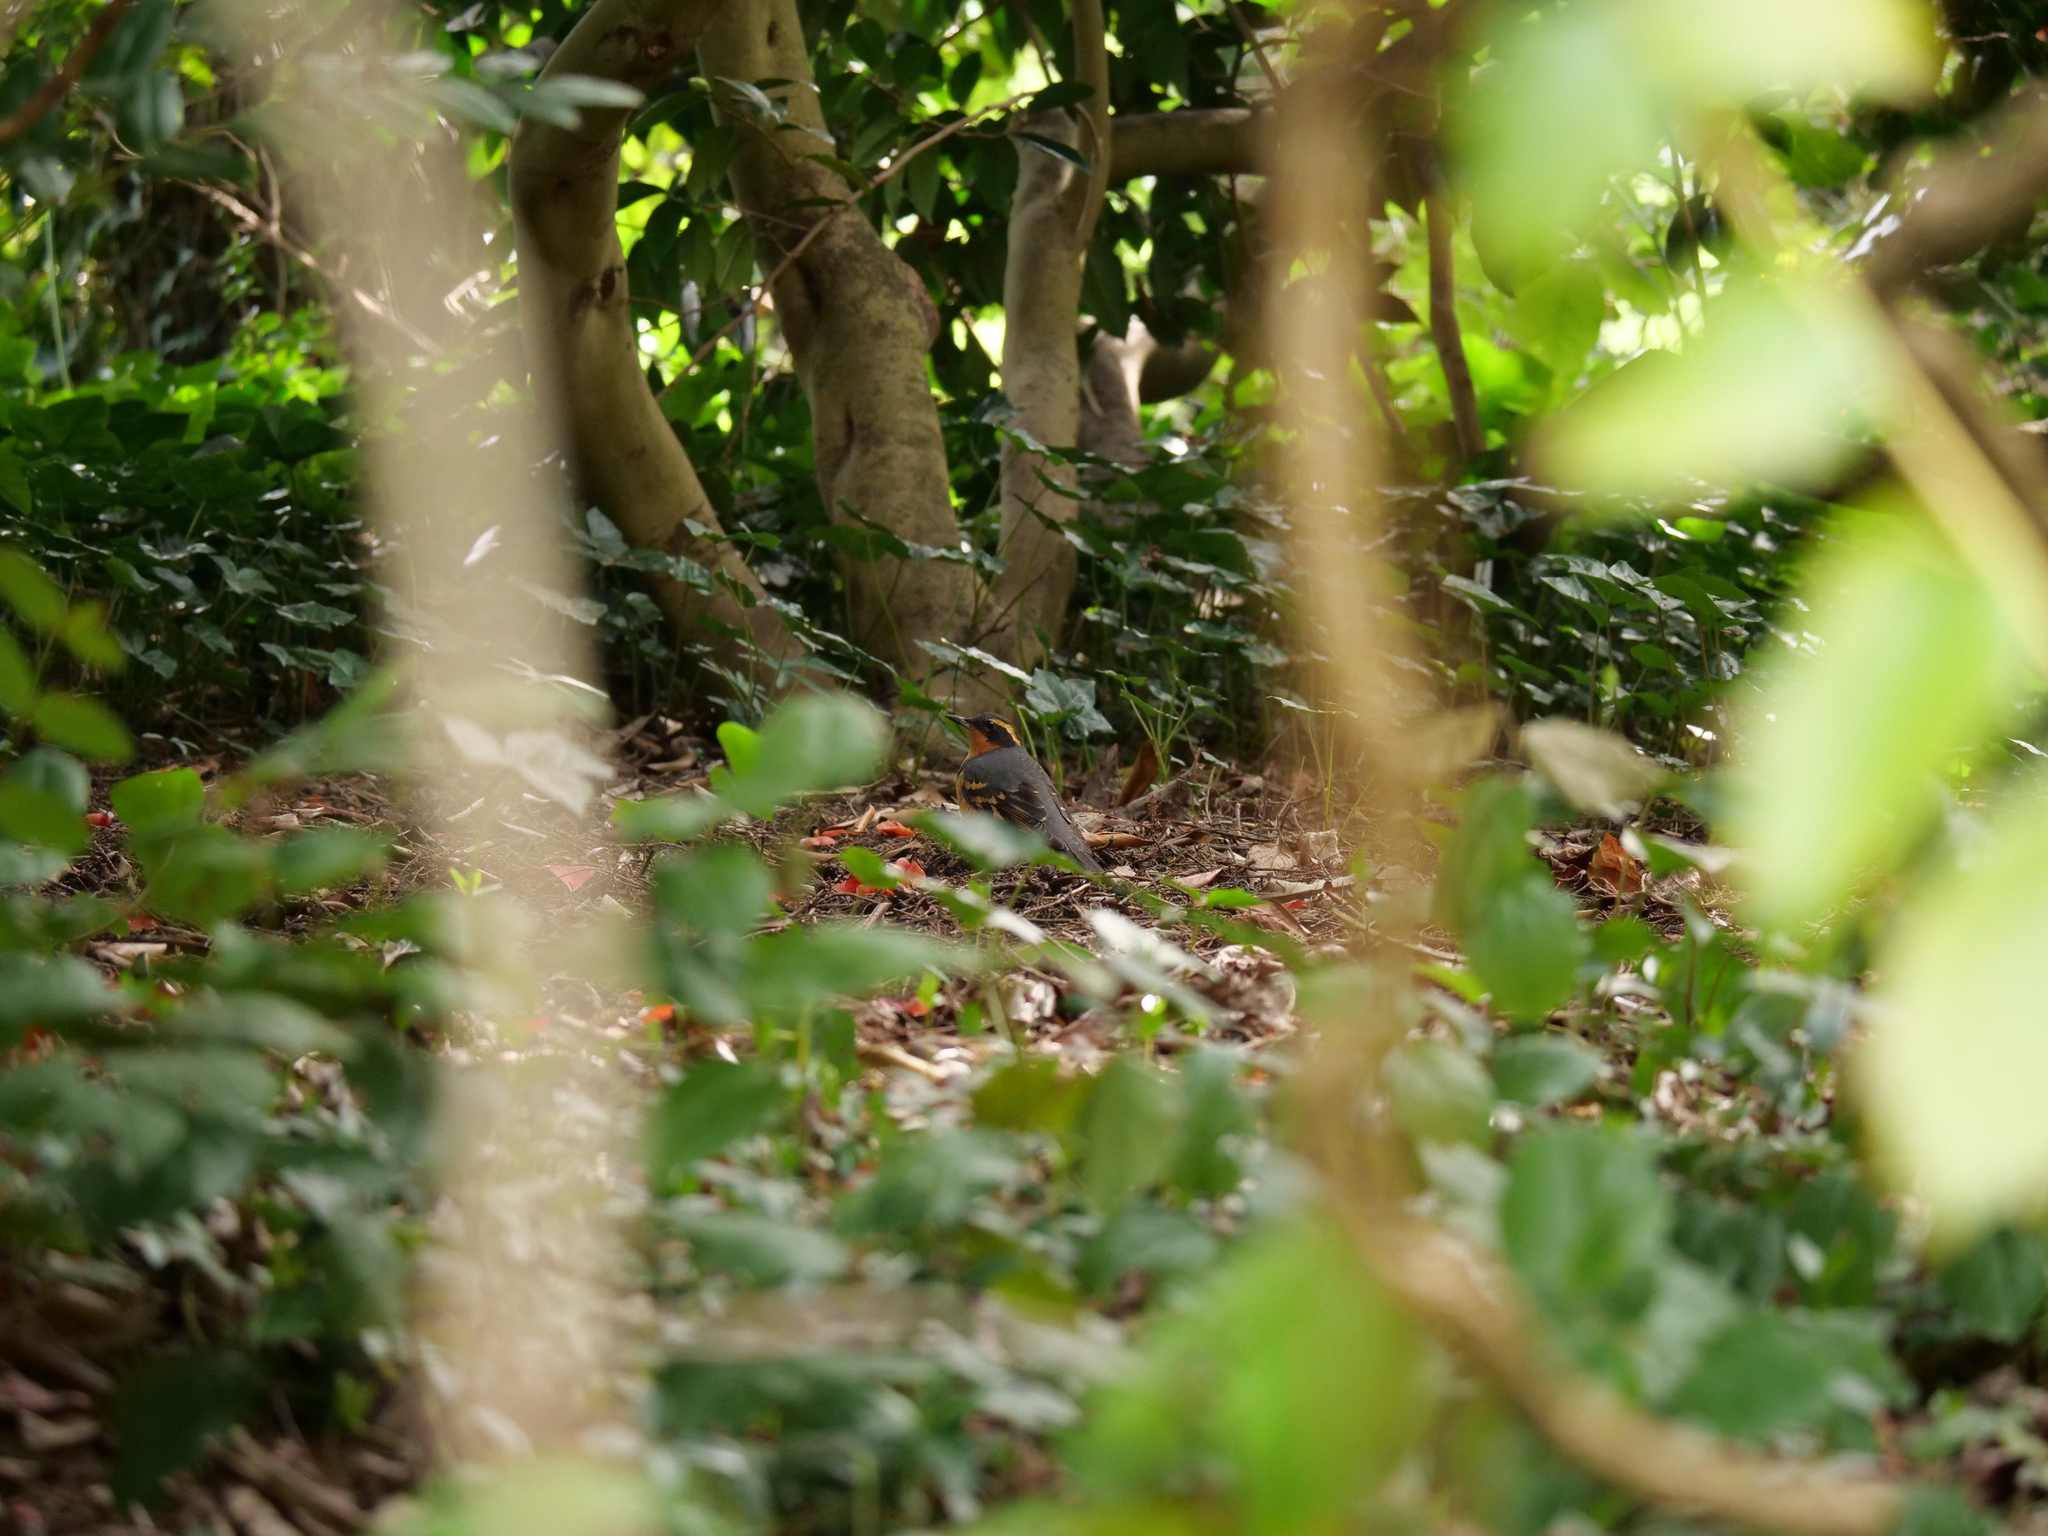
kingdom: Animalia
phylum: Chordata
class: Aves
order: Passeriformes
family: Turdidae
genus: Ixoreus
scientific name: Ixoreus naevius
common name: Varied thrush
